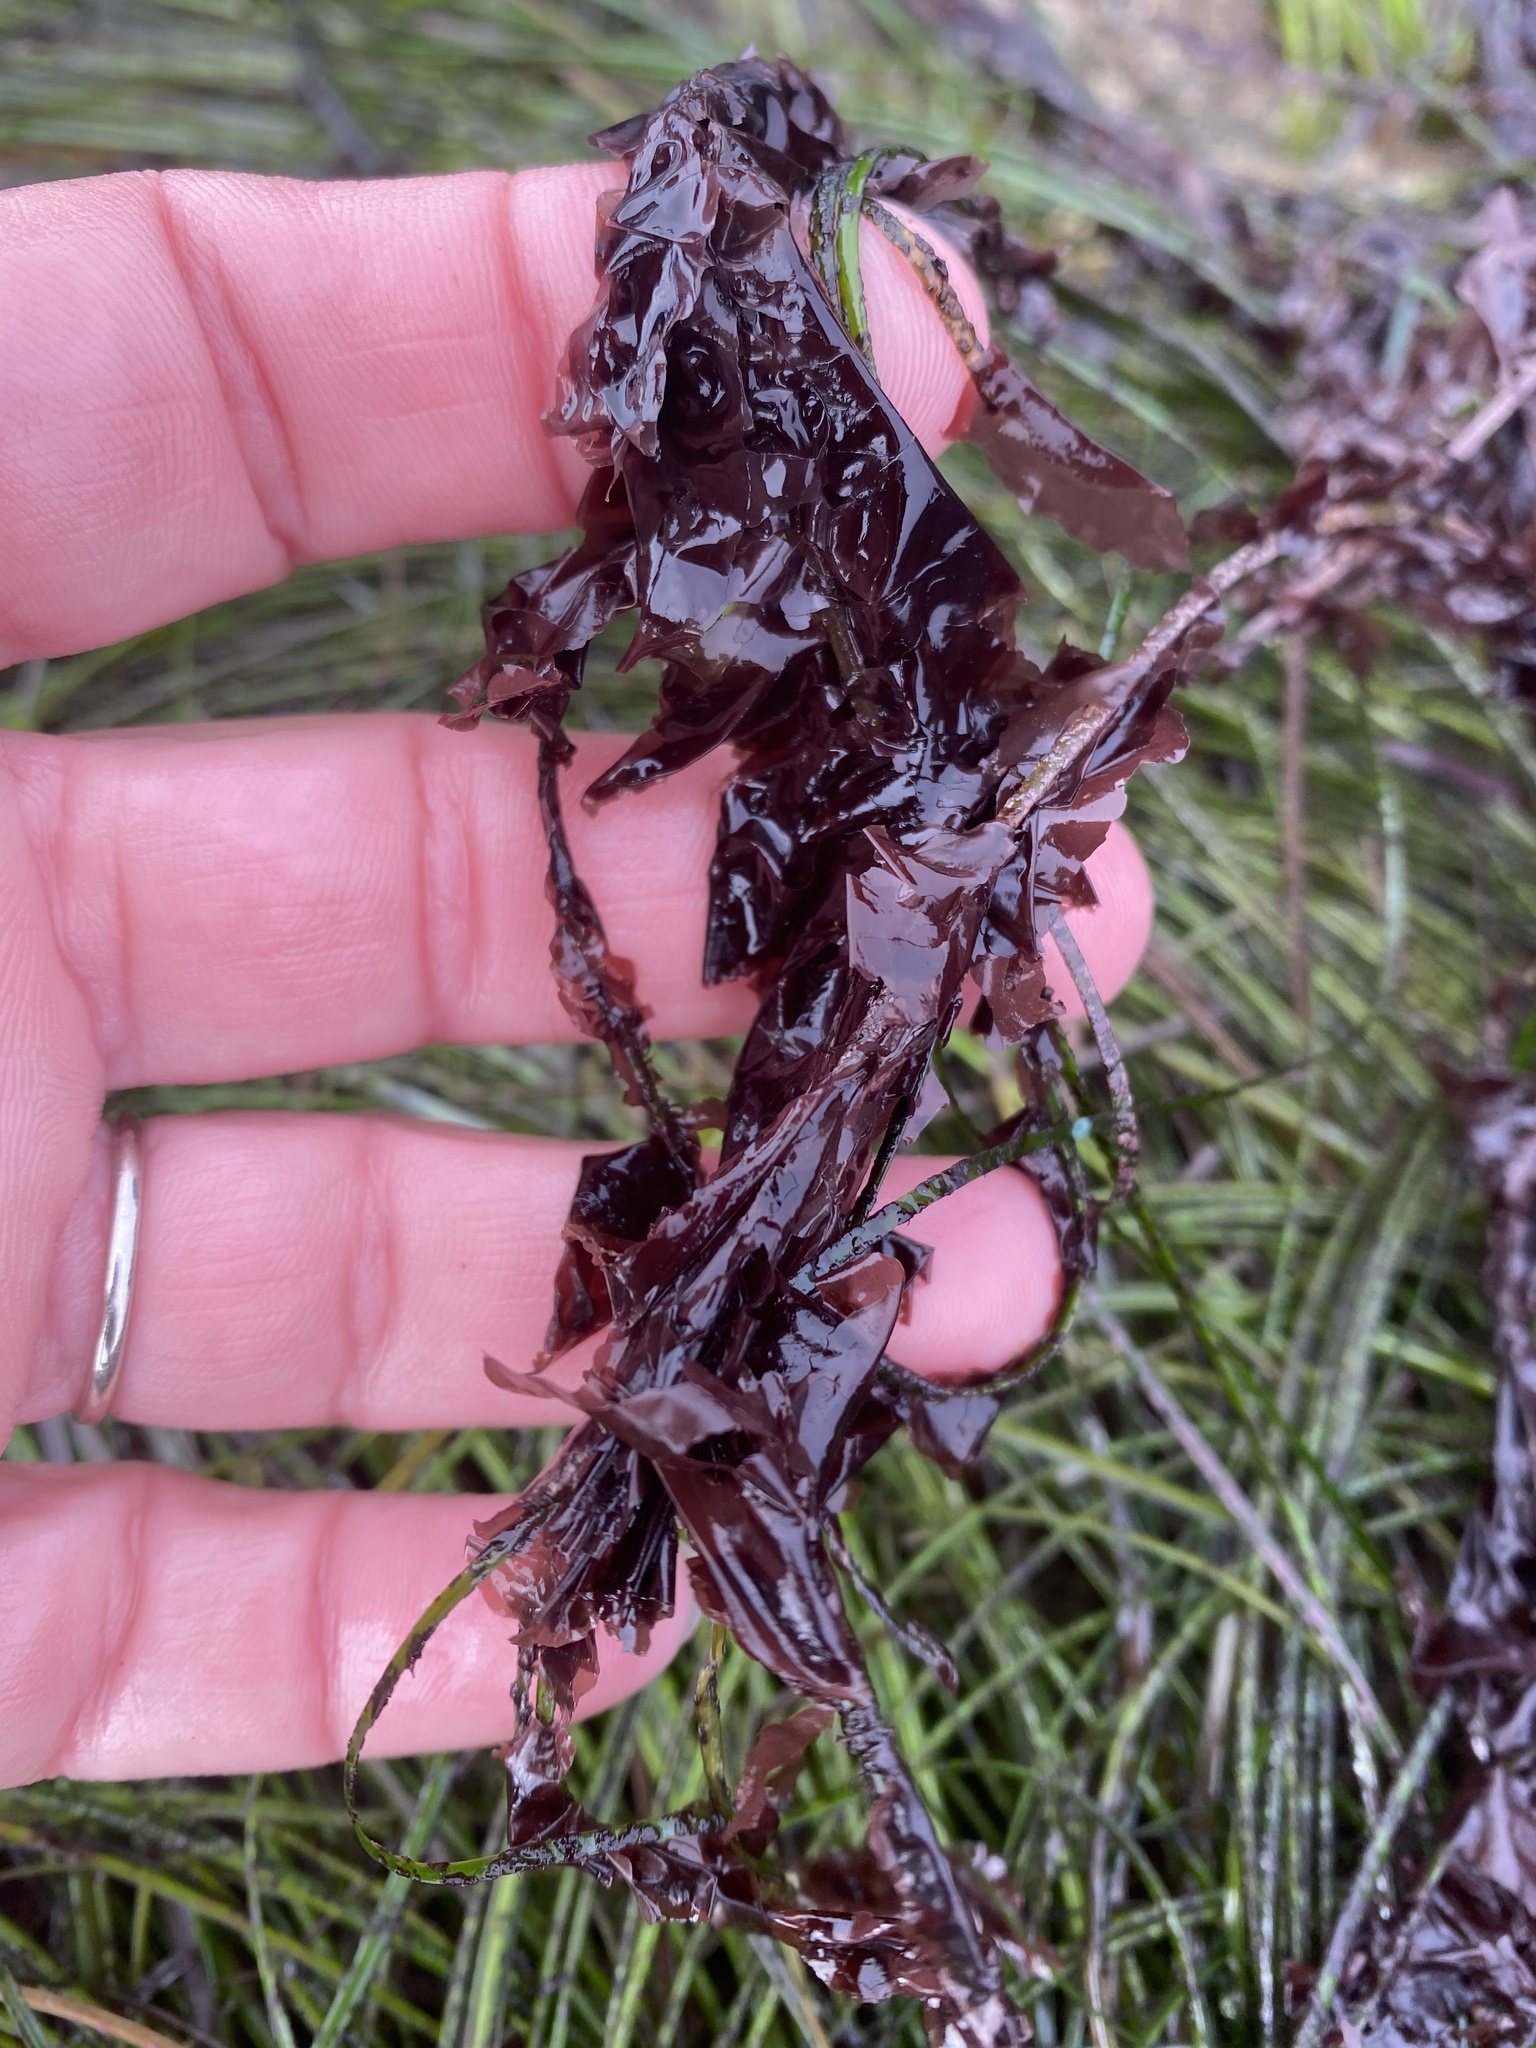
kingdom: Plantae
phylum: Rhodophyta
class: Compsopogonophyceae
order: Erythropeltidales
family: Erythrotrichiaceae
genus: Smithora
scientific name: Smithora naiadum
